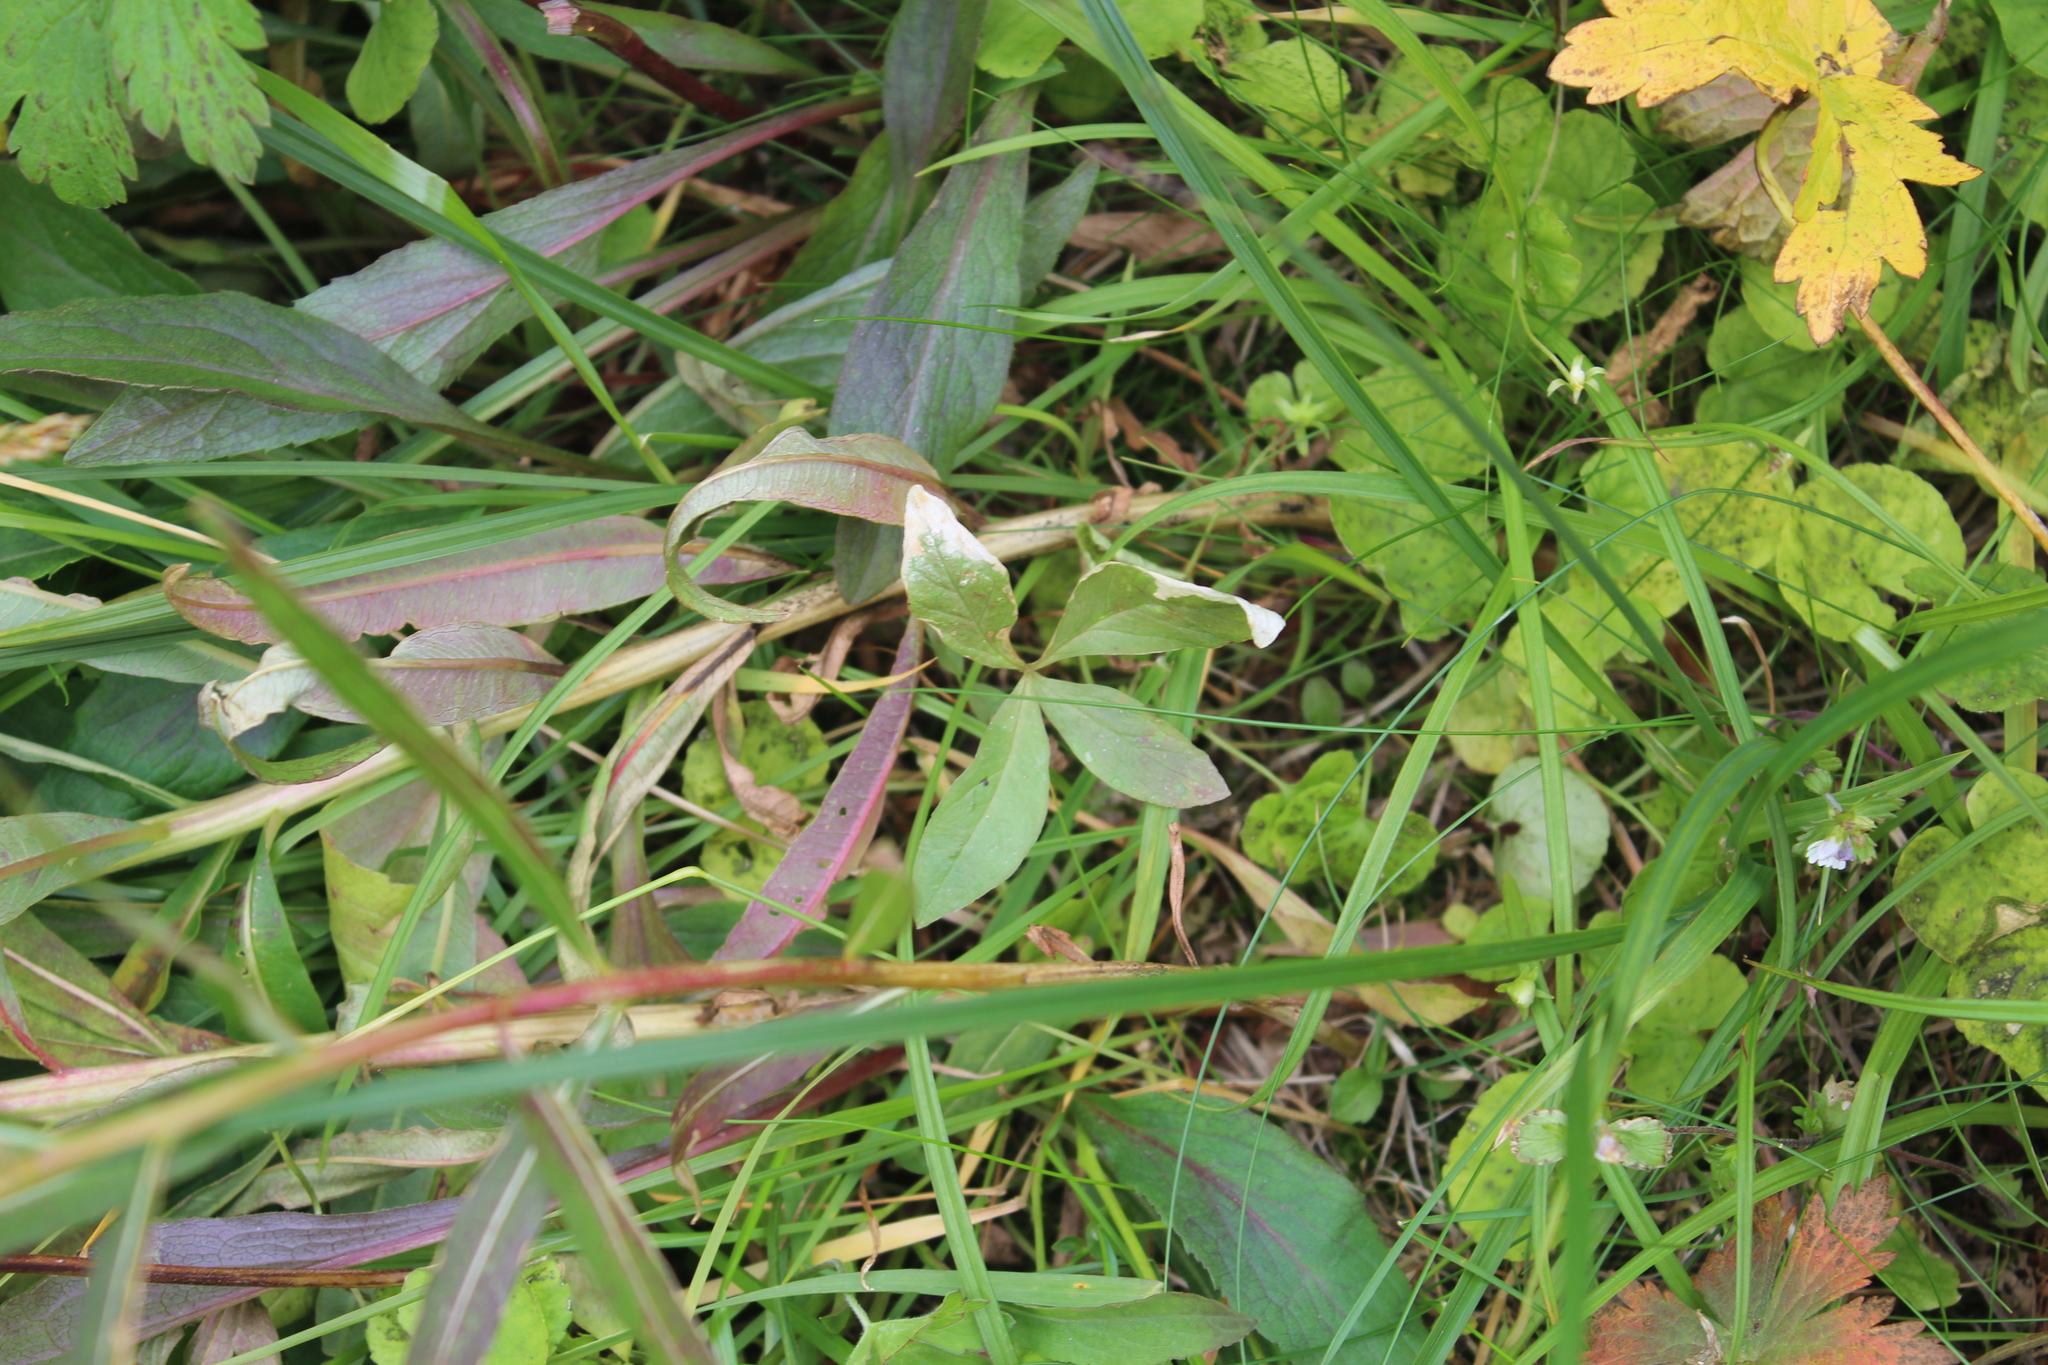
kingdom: Plantae
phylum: Tracheophyta
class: Magnoliopsida
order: Ericales
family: Primulaceae
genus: Lysimachia
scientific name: Lysimachia europaea
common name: Arctic starflower
